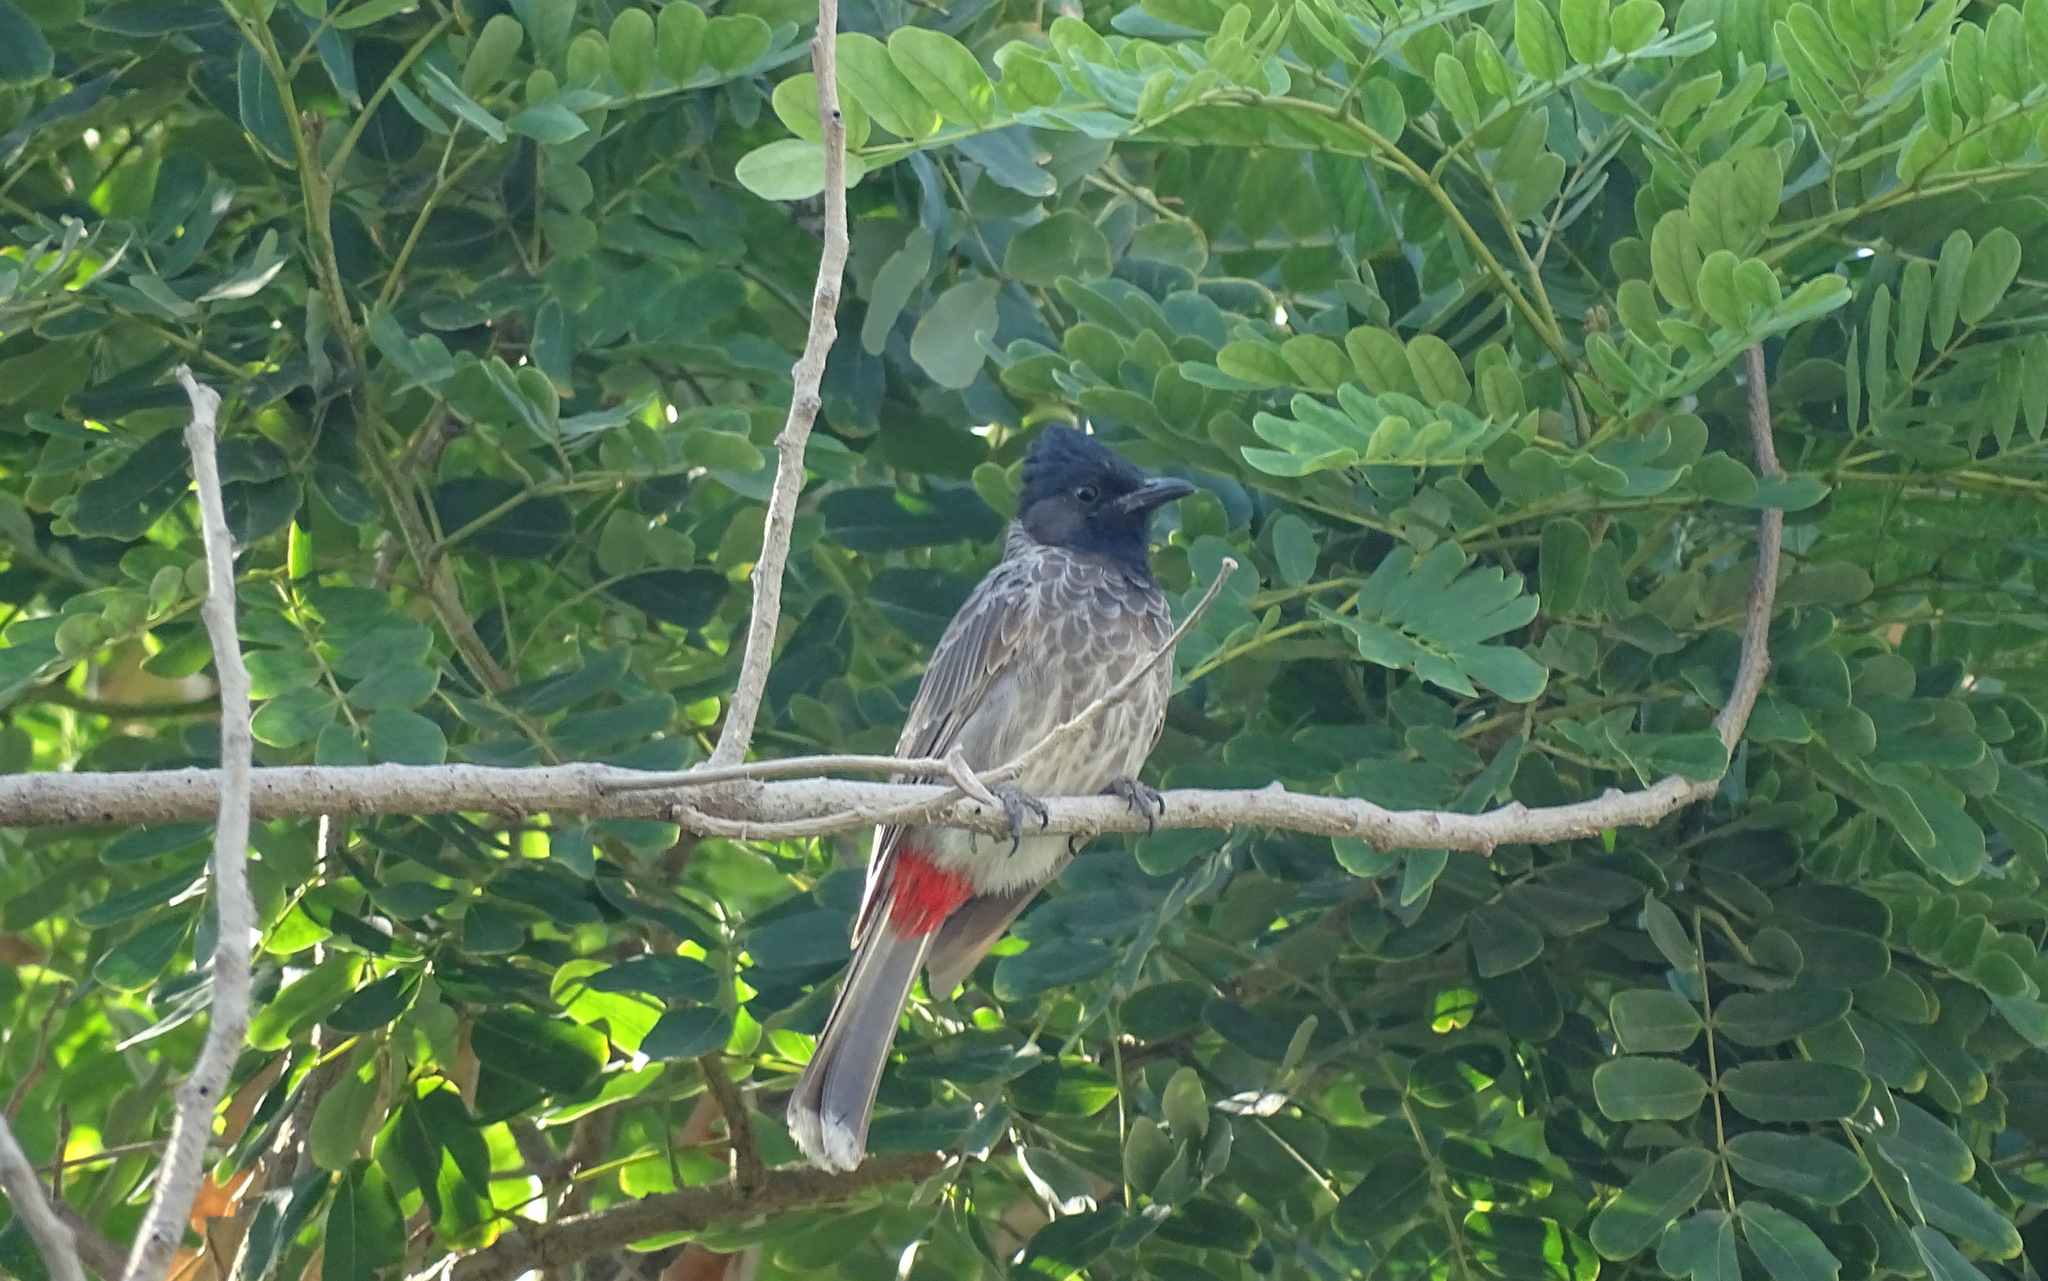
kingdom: Animalia
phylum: Chordata
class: Aves
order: Passeriformes
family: Pycnonotidae
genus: Pycnonotus
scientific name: Pycnonotus cafer
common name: Red-vented bulbul
